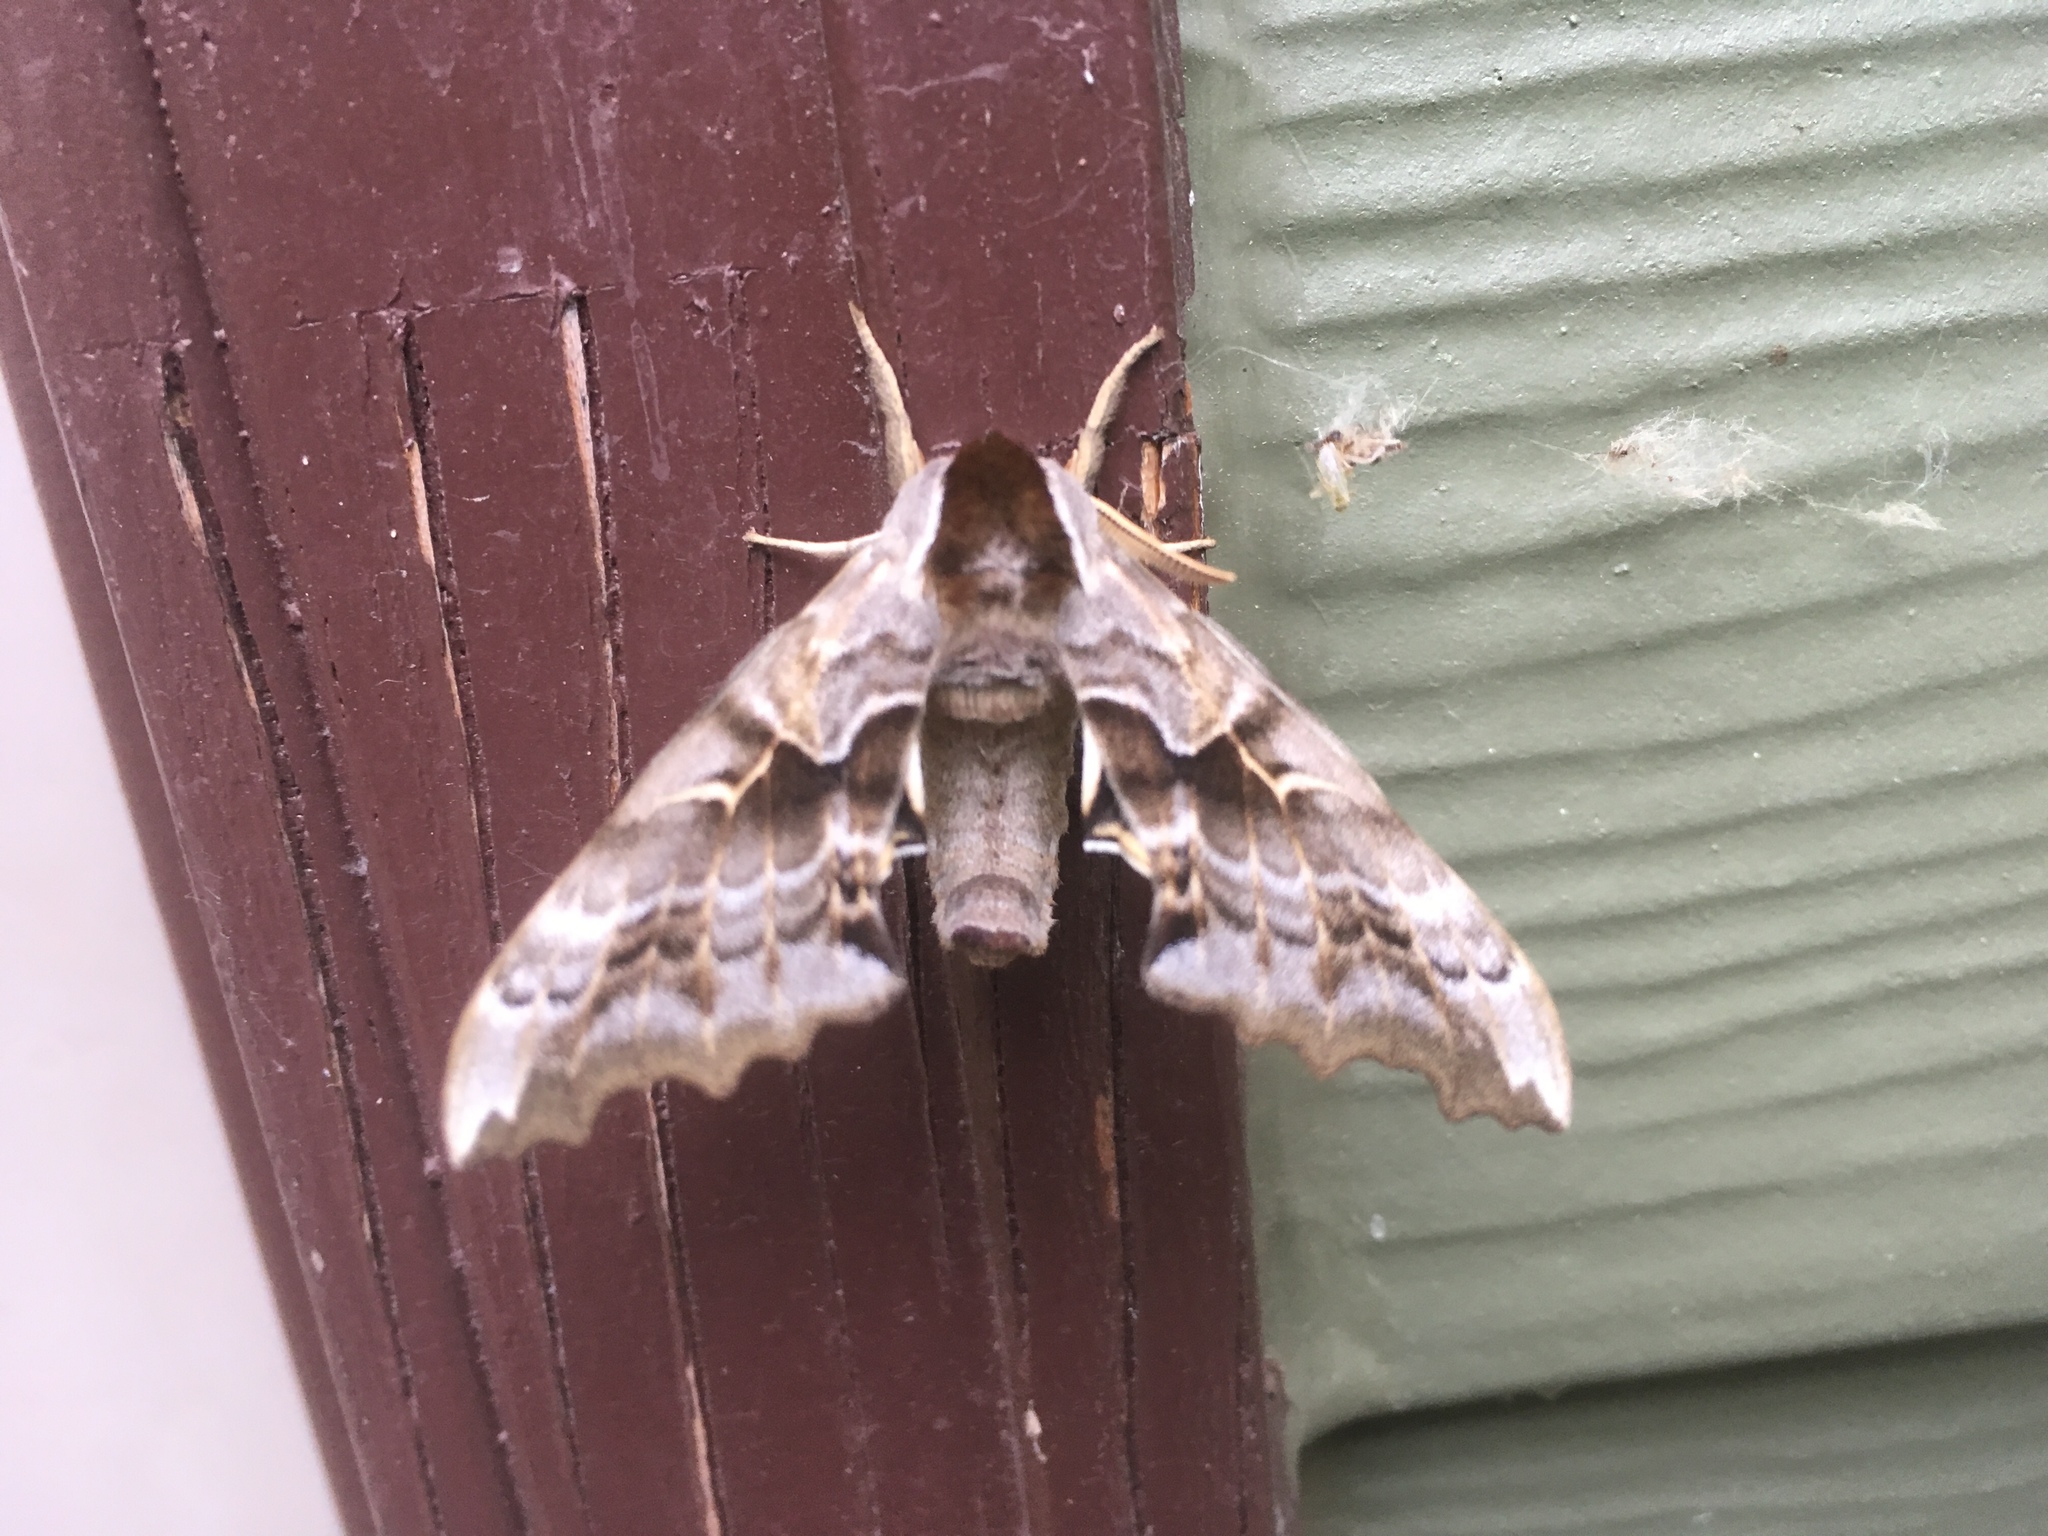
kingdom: Animalia
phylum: Arthropoda
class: Insecta
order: Lepidoptera
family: Sphingidae
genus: Smerinthus
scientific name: Smerinthus cerisyi
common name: Cerisy's sphinx moth
